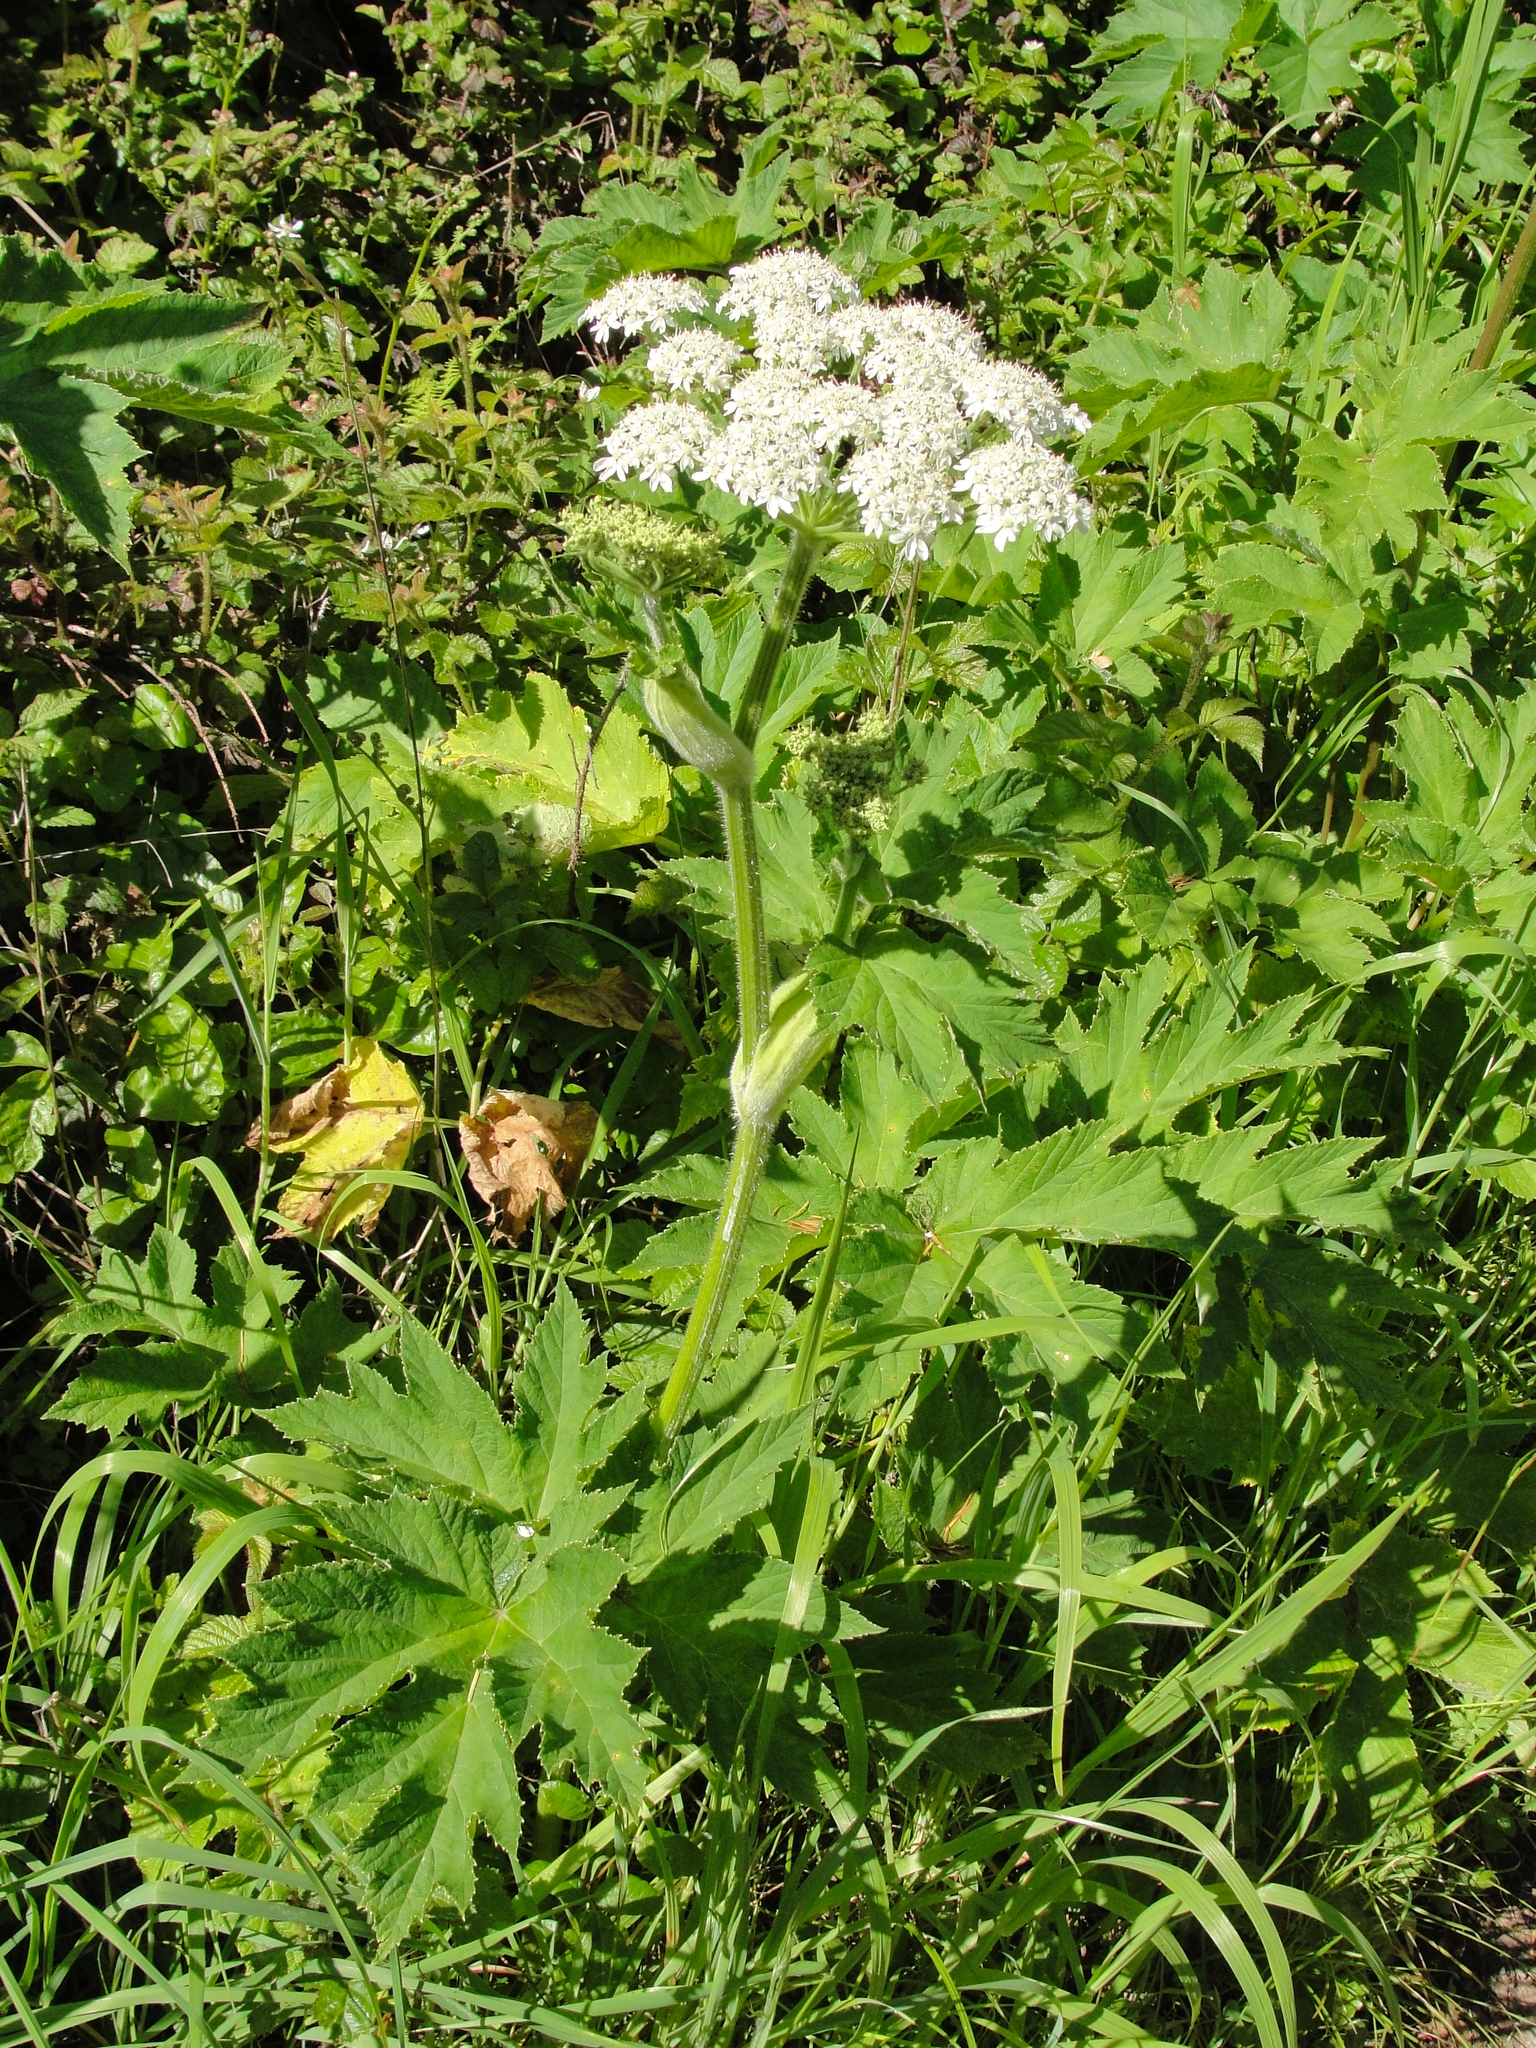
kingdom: Plantae
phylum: Tracheophyta
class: Magnoliopsida
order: Apiales
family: Apiaceae
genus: Heracleum
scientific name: Heracleum maximum
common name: American cow parsnip
